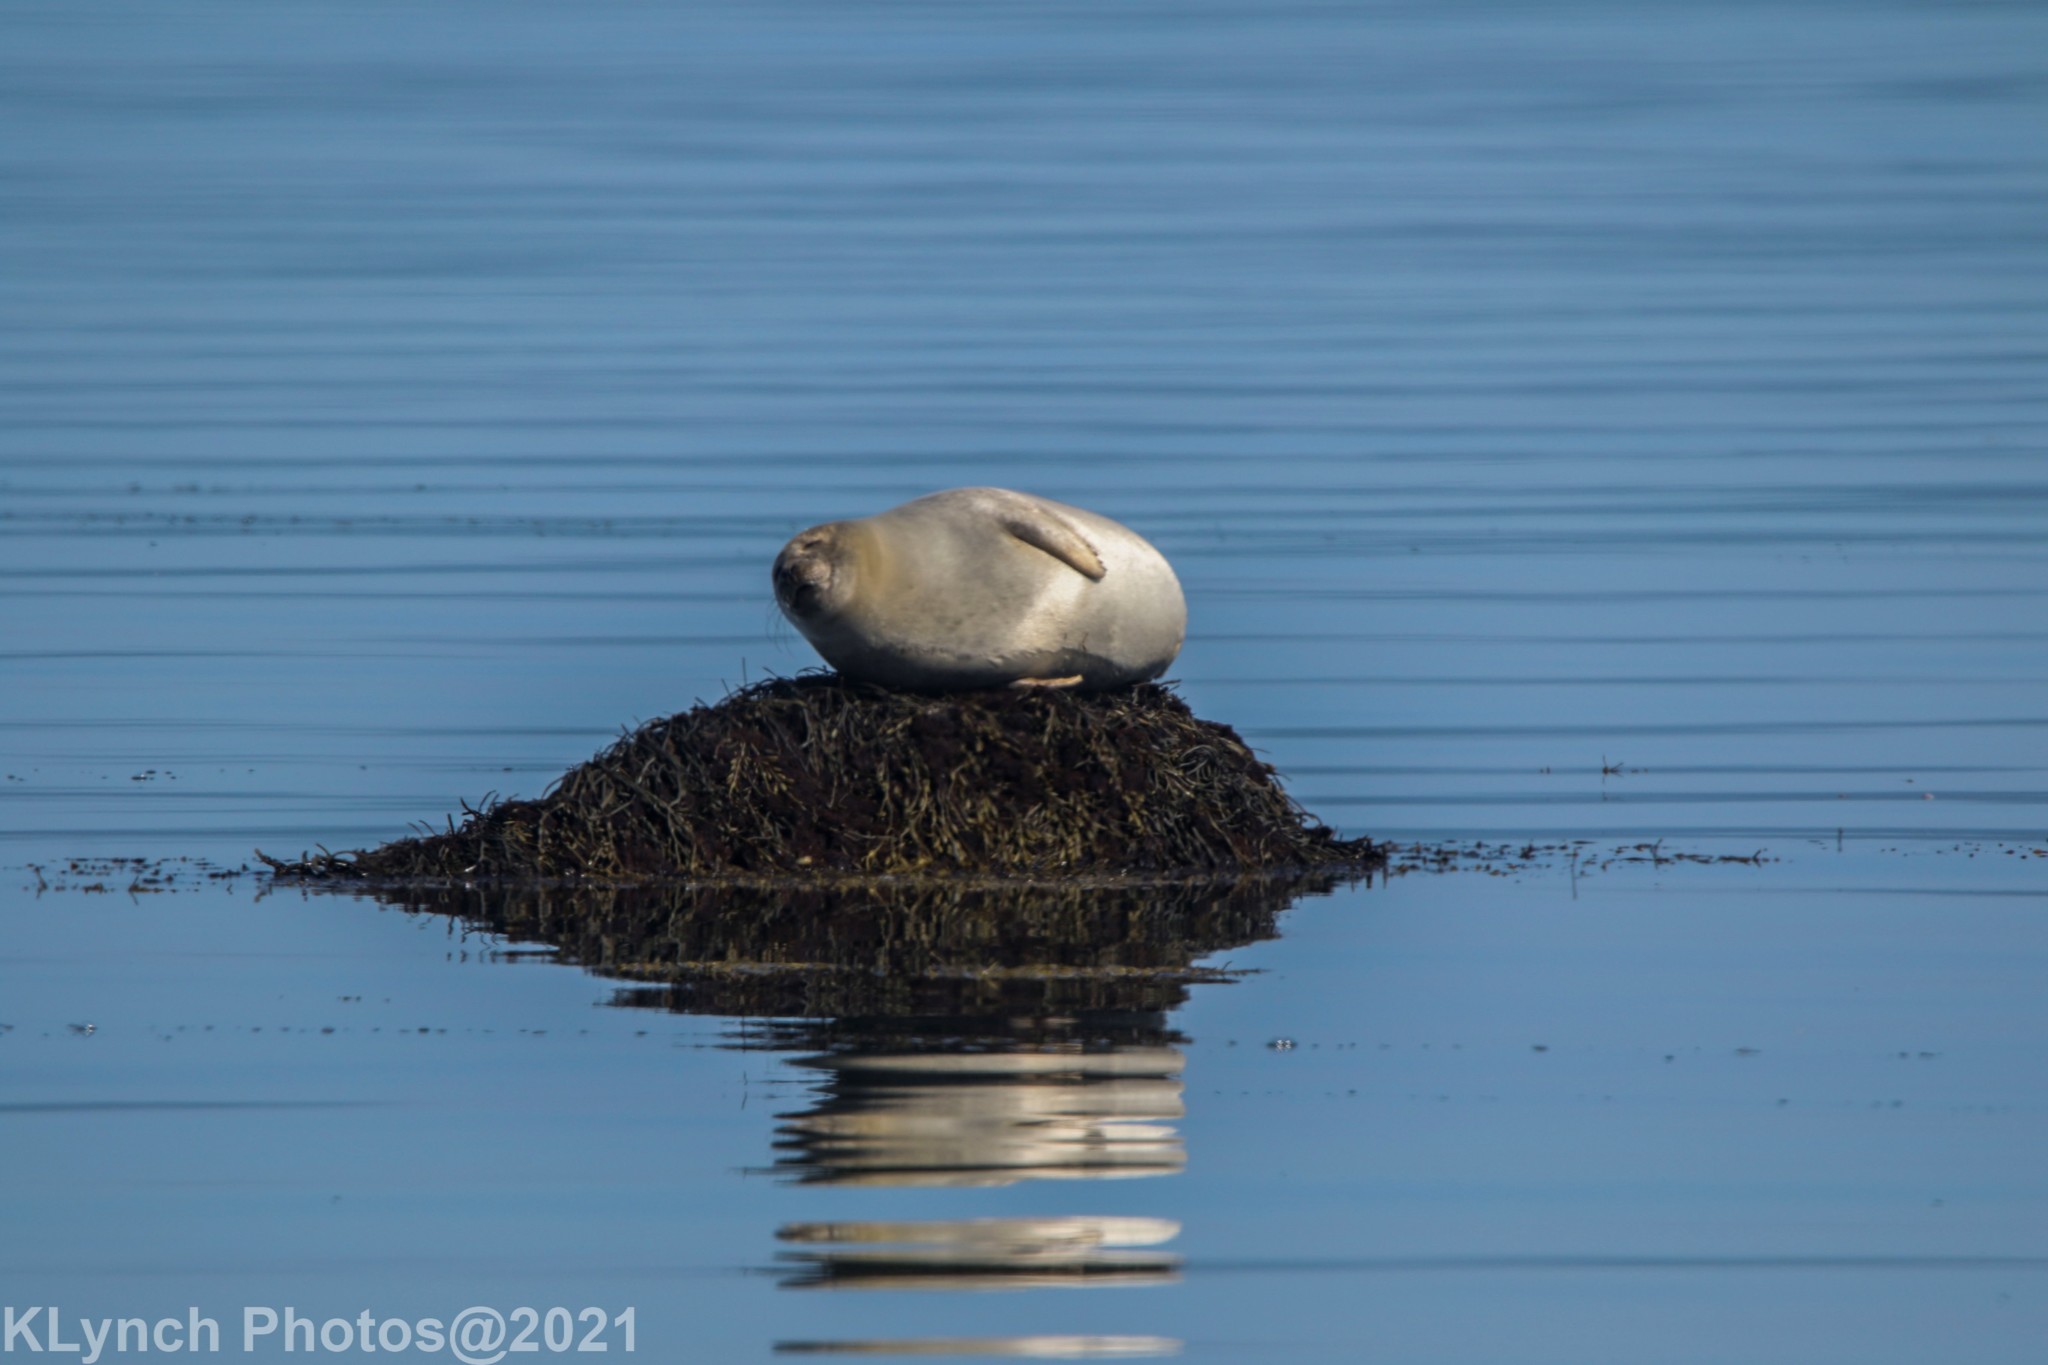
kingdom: Animalia
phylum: Chordata
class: Mammalia
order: Carnivora
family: Phocidae
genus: Phoca
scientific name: Phoca vitulina
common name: Harbor seal
